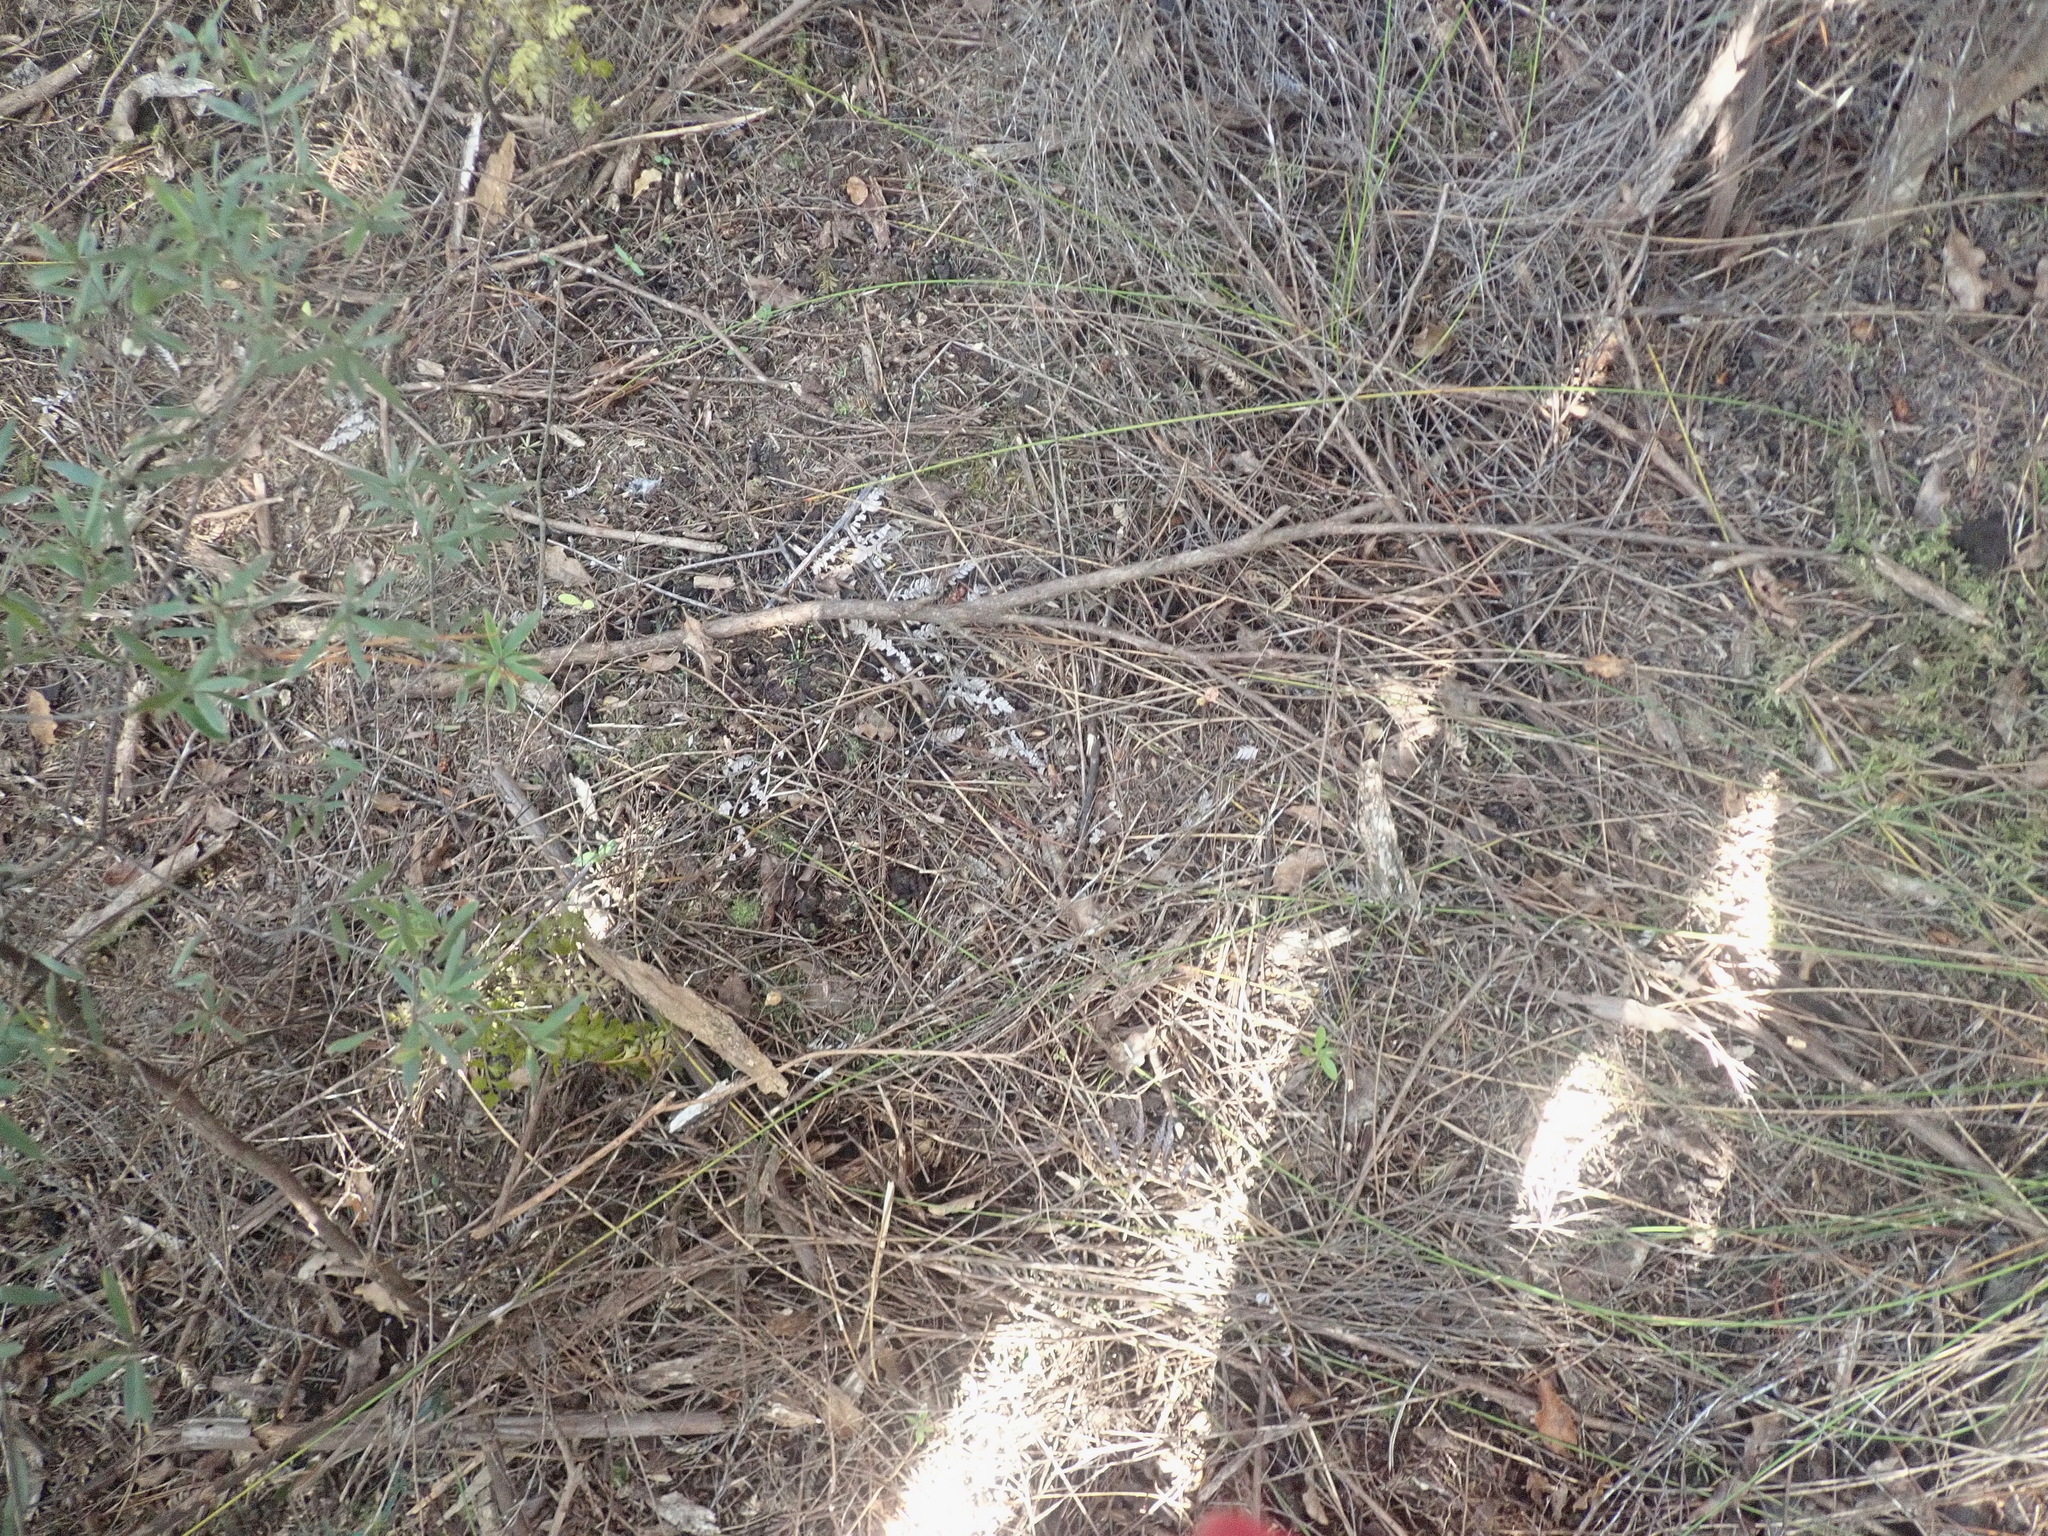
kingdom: Plantae
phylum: Tracheophyta
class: Liliopsida
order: Poales
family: Cyperaceae
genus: Schoenus
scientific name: Schoenus tendo
